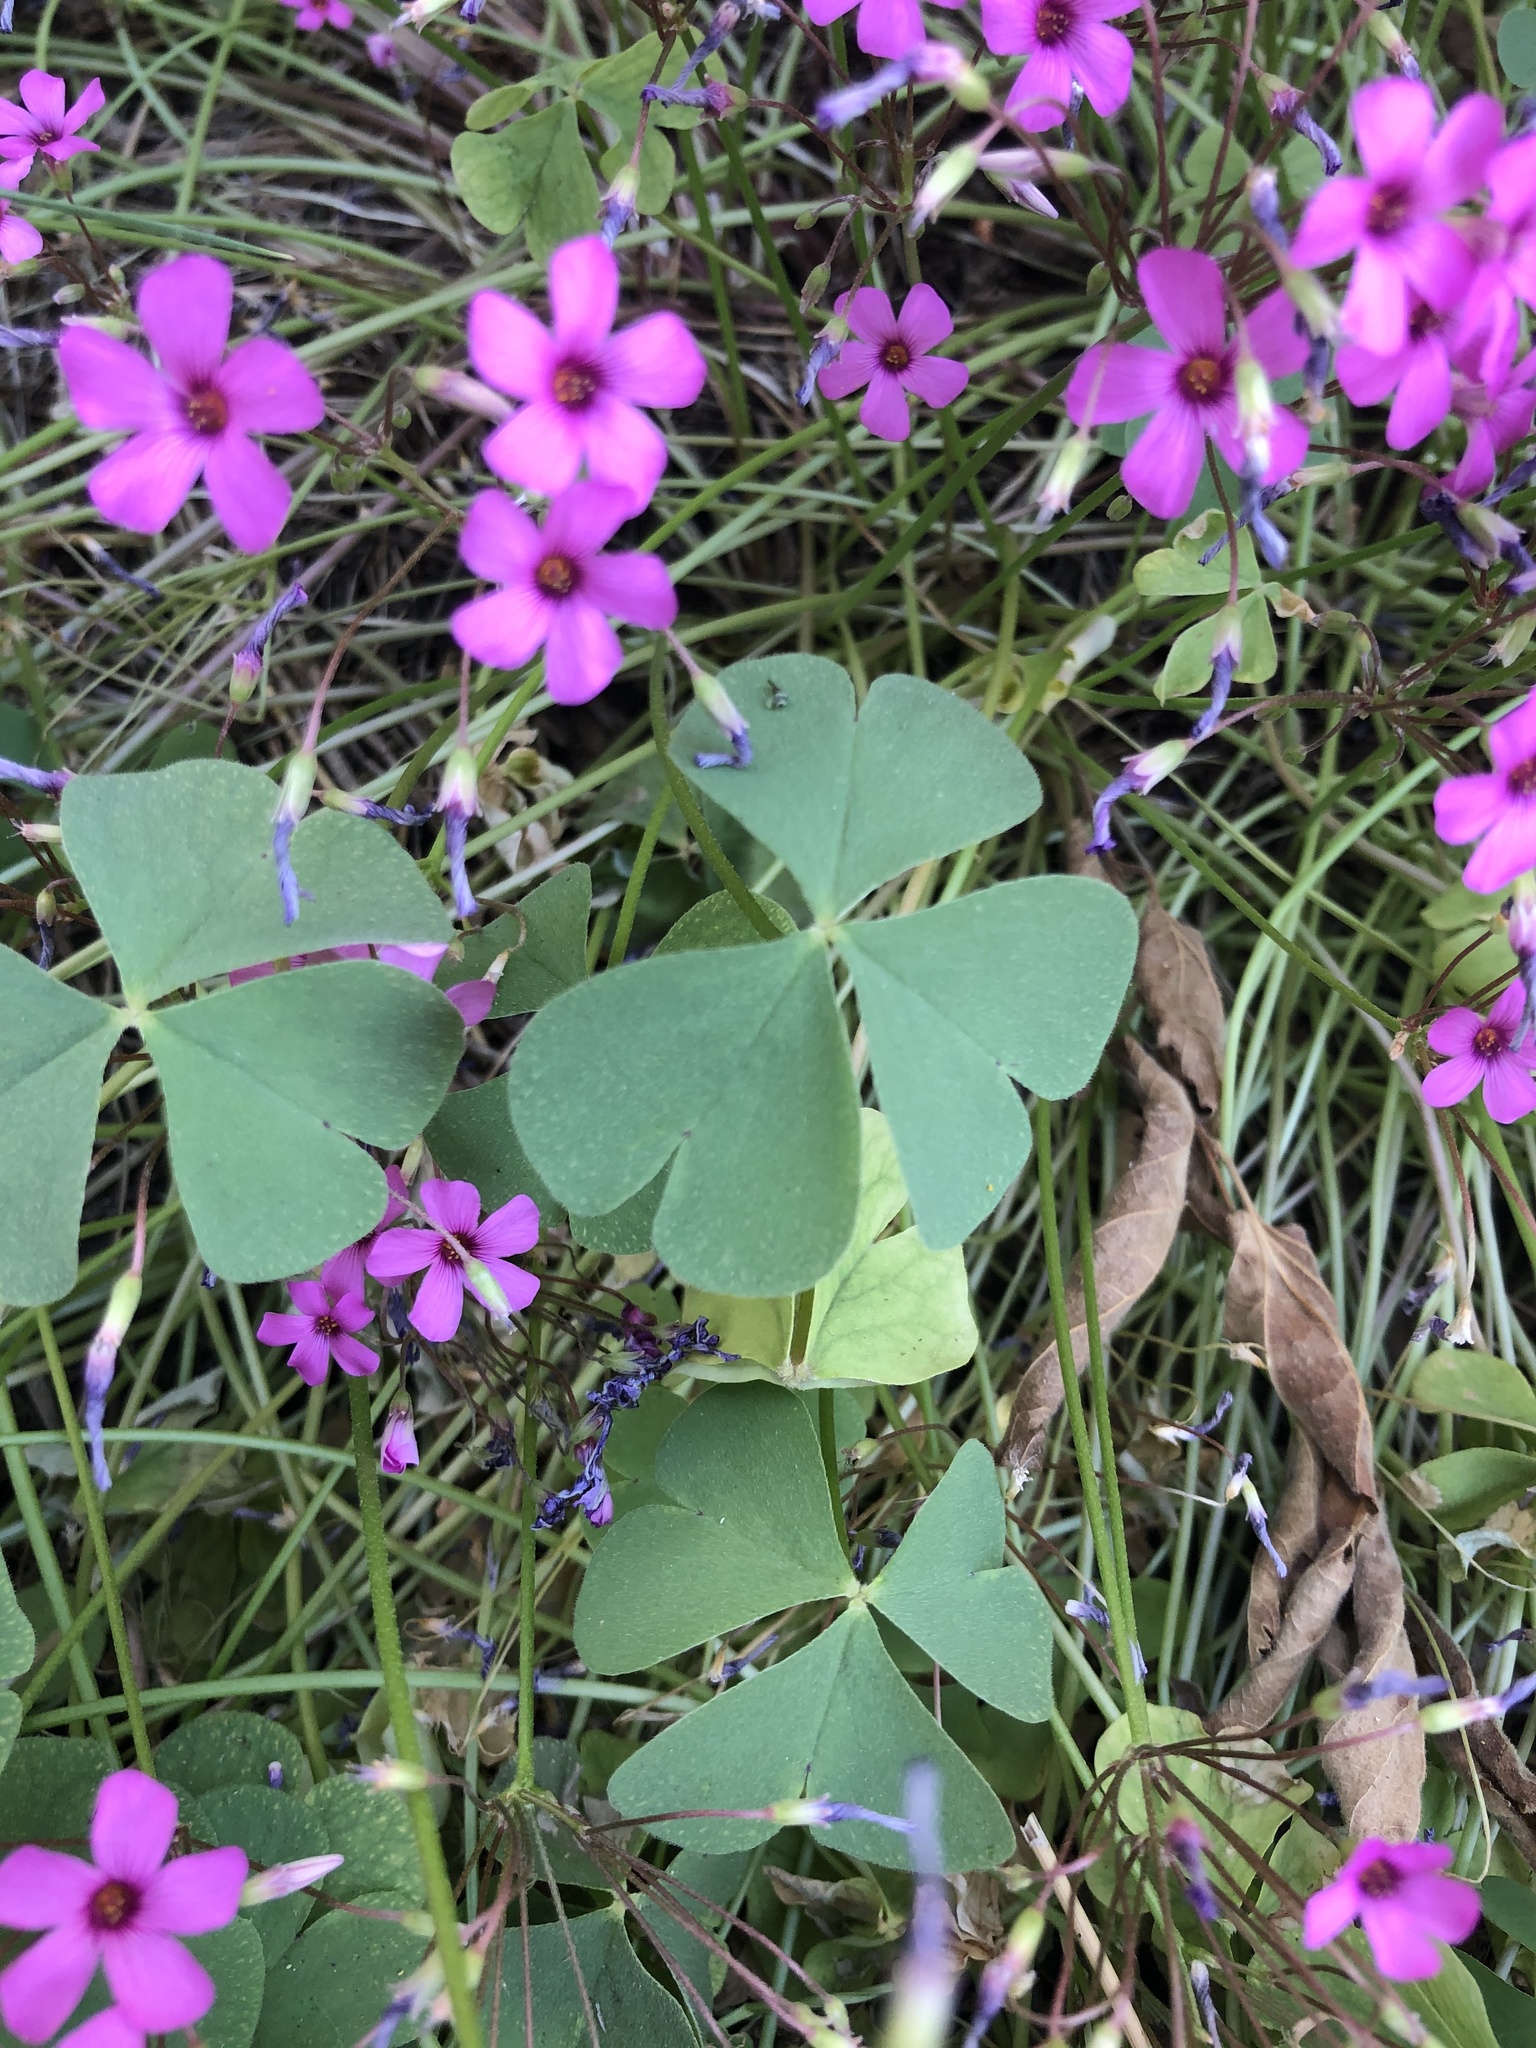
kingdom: Plantae
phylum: Tracheophyta
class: Magnoliopsida
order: Oxalidales
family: Oxalidaceae
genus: Oxalis
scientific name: Oxalis articulata
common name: Pink-sorrel
